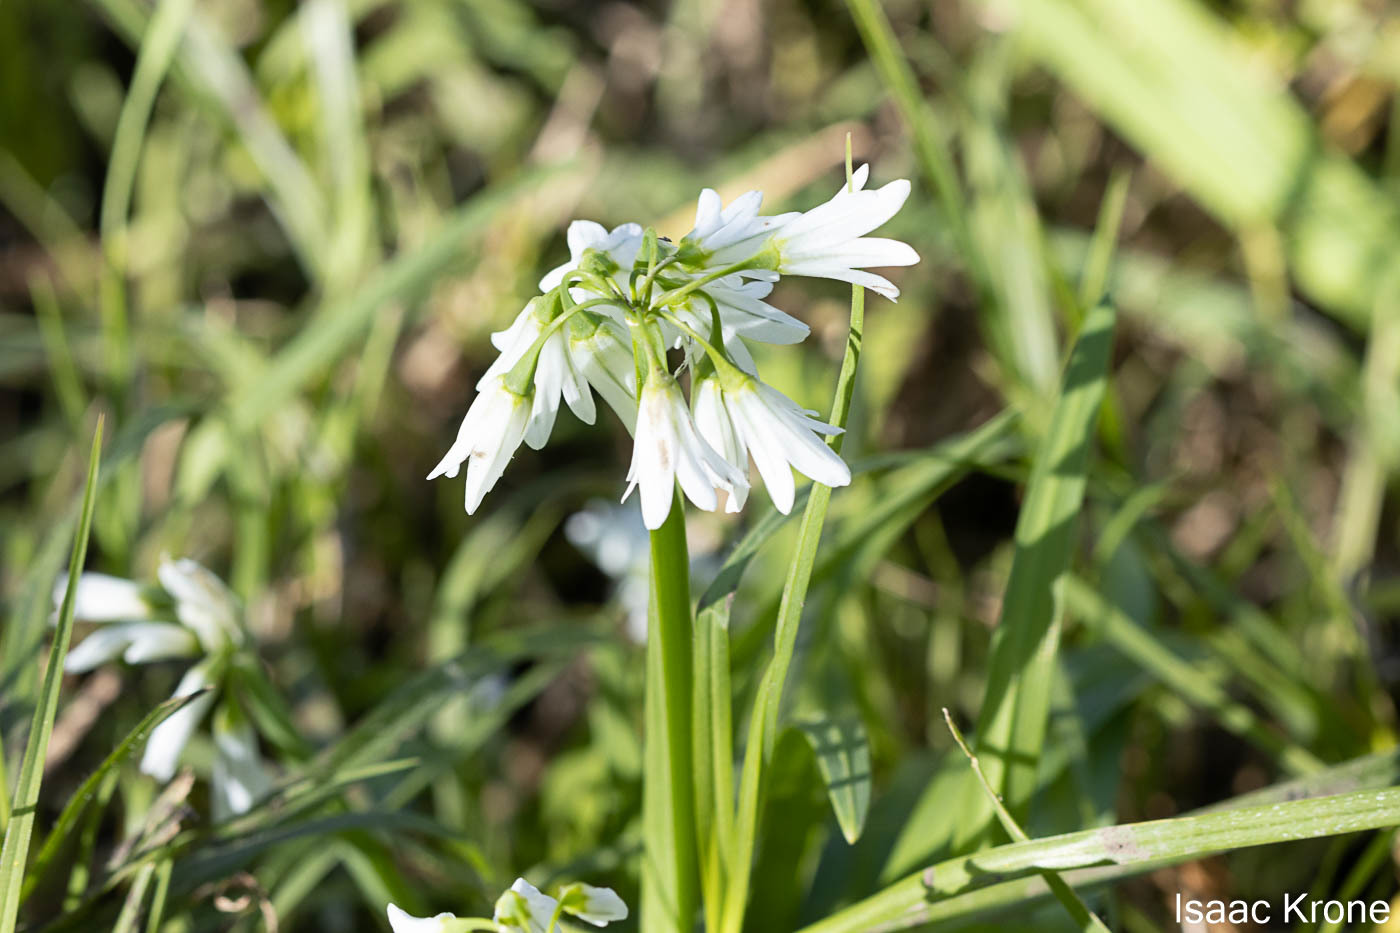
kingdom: Plantae
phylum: Tracheophyta
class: Liliopsida
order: Asparagales
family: Amaryllidaceae
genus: Allium
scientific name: Allium triquetrum
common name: Three-cornered garlic
